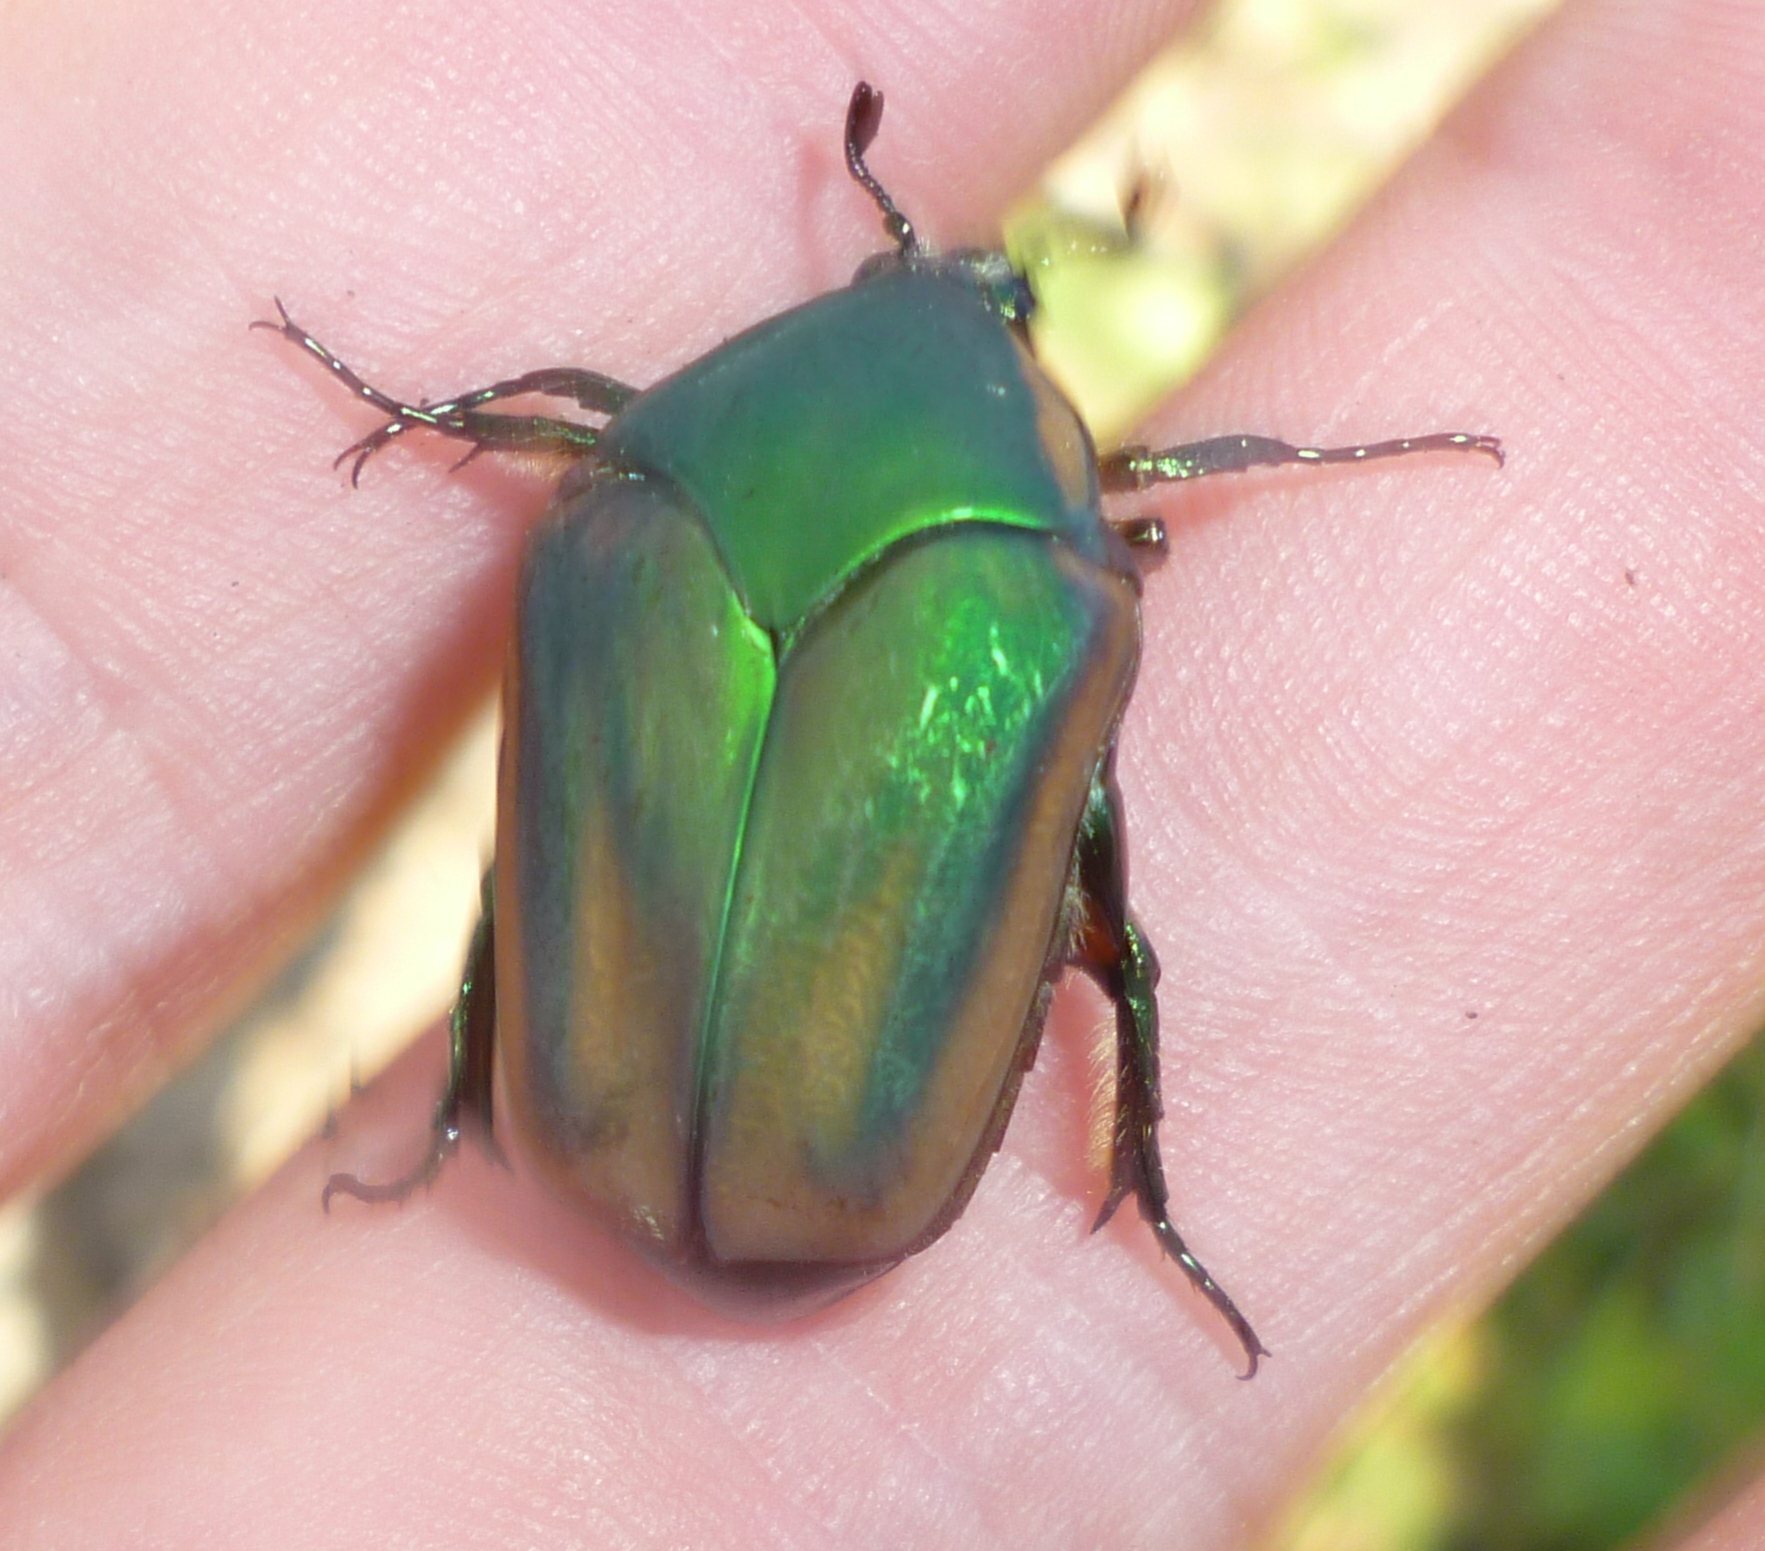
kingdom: Animalia
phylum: Arthropoda
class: Insecta
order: Coleoptera
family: Scarabaeidae
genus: Cotinis
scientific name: Cotinis nitida
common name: Common green june beetle
